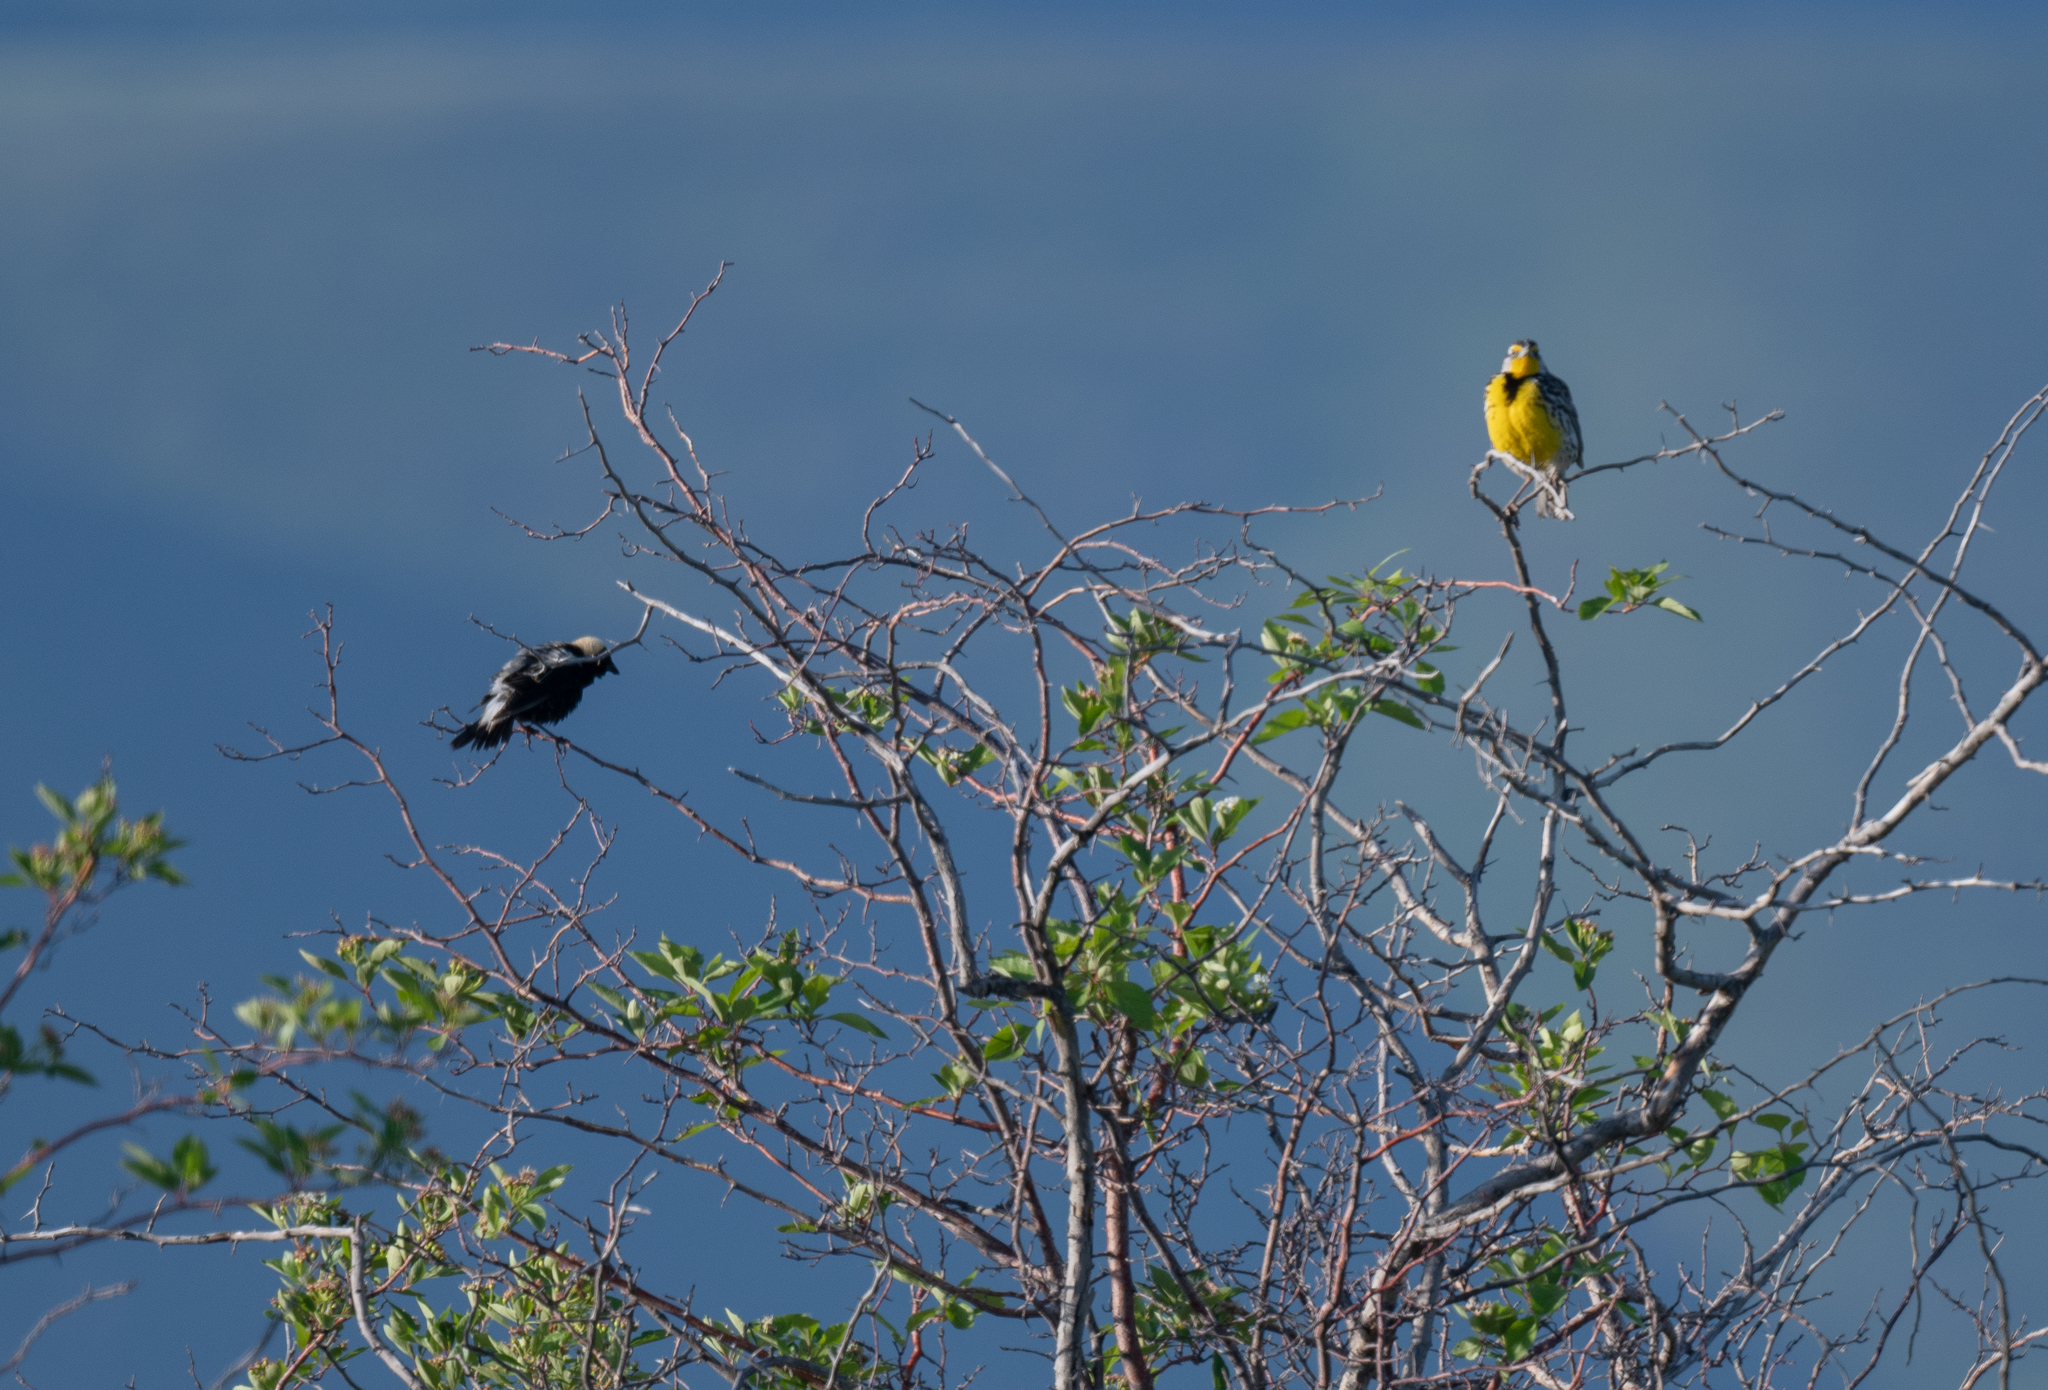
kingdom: Animalia
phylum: Chordata
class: Aves
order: Passeriformes
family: Icteridae
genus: Sturnella
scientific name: Sturnella neglecta
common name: Western meadowlark
